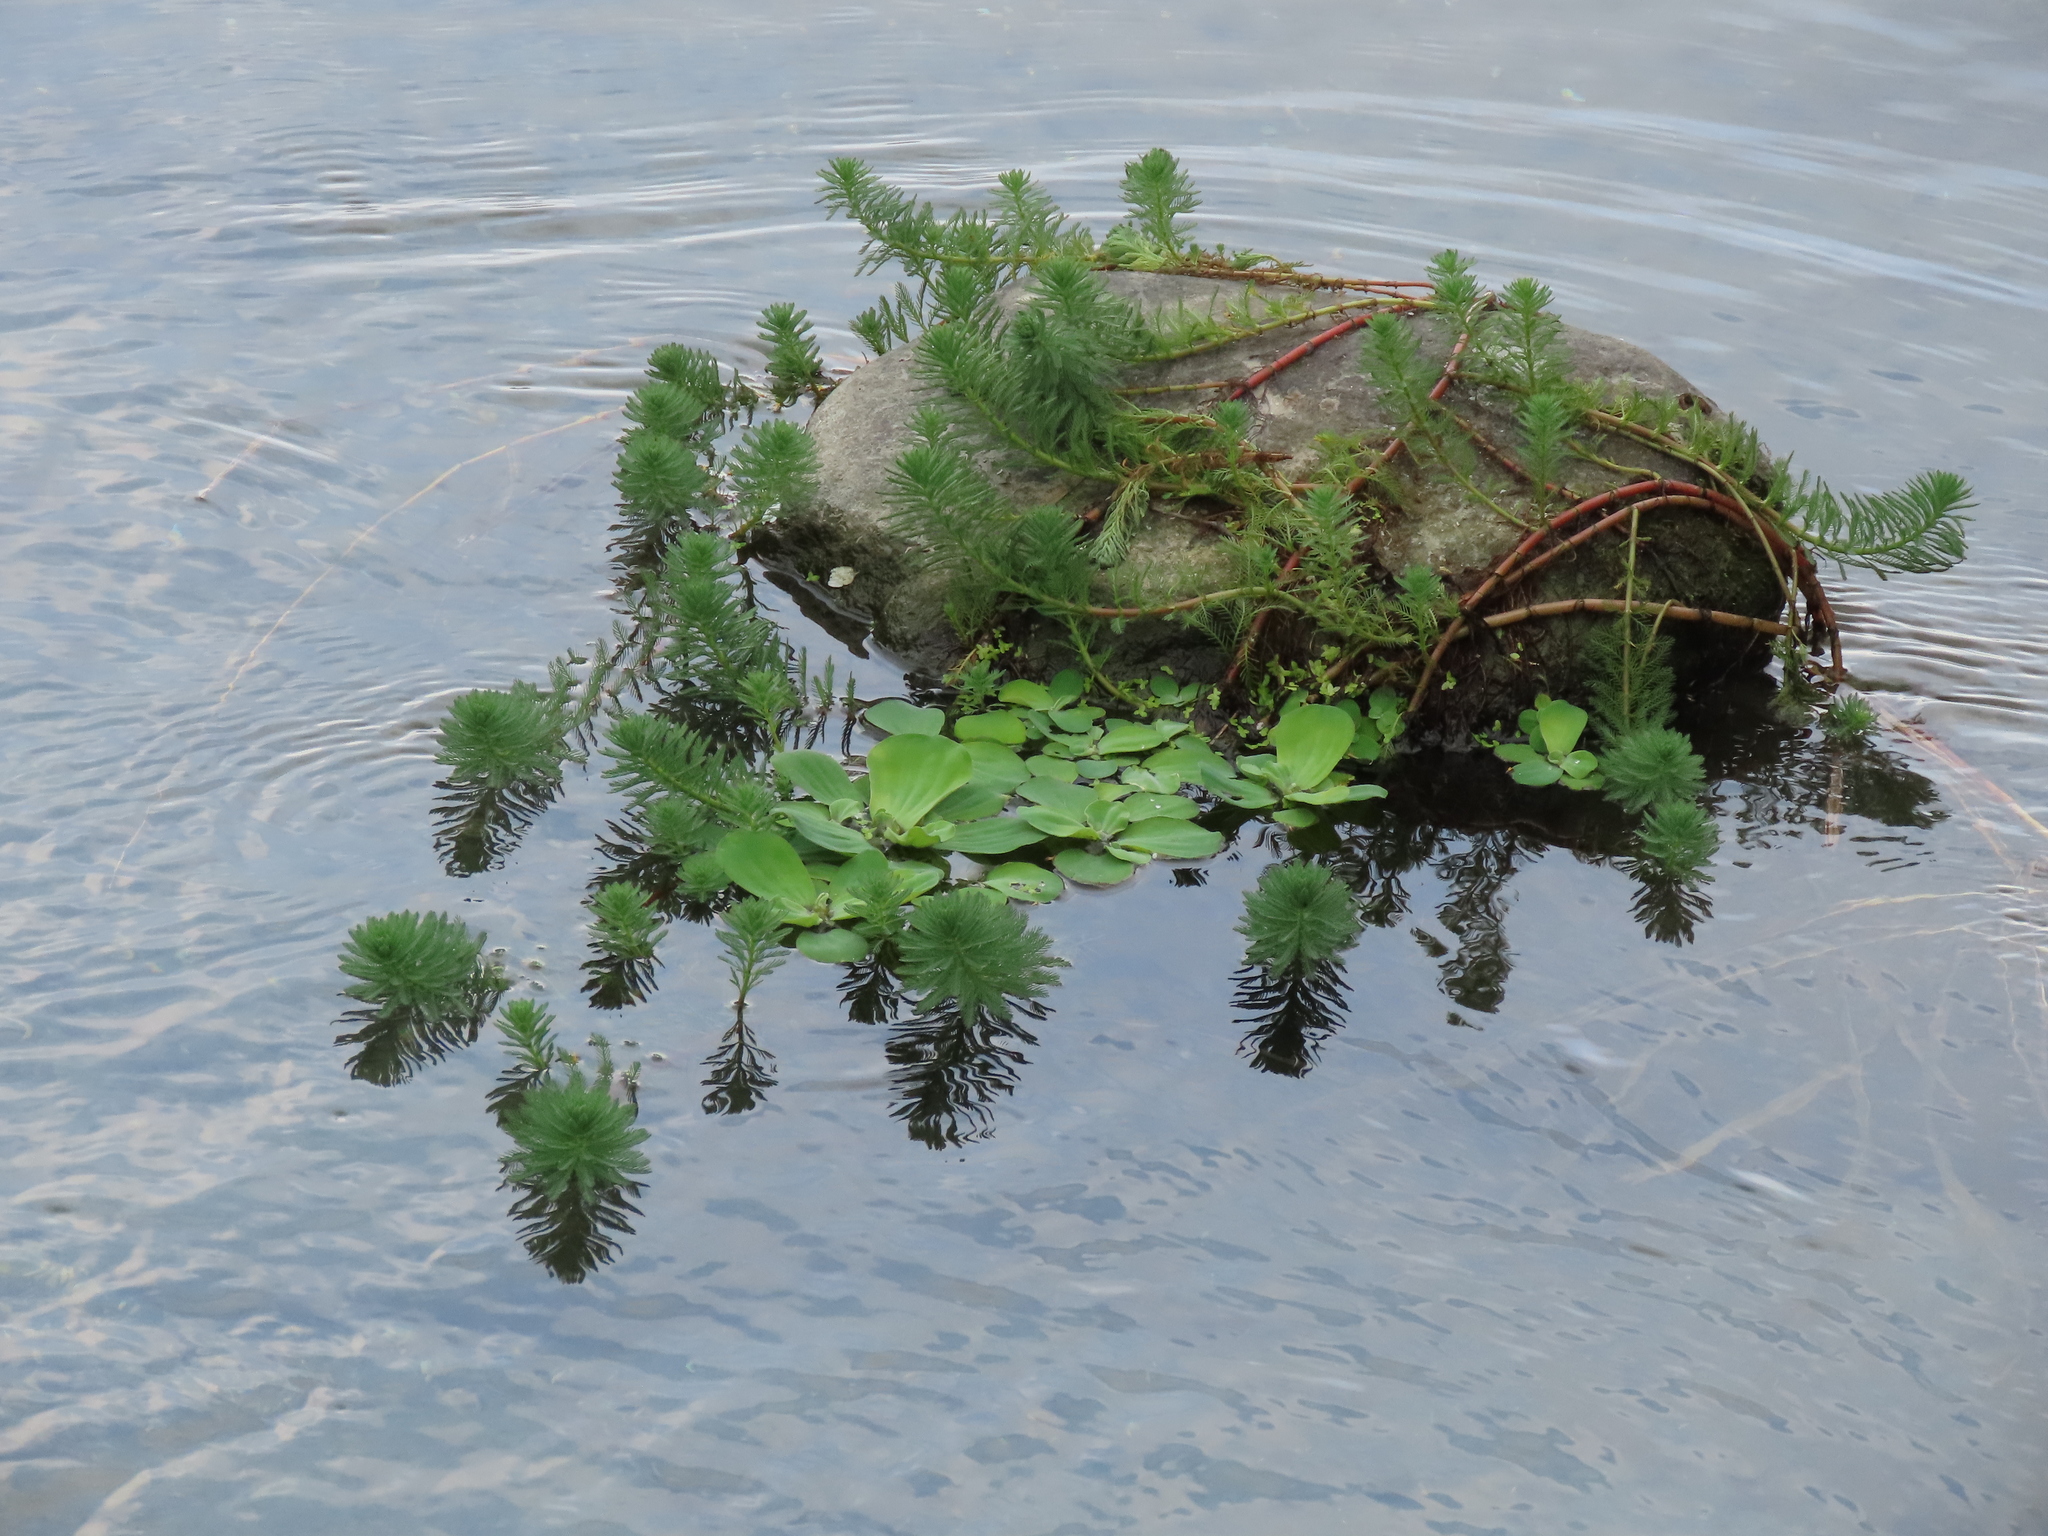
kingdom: Plantae
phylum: Tracheophyta
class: Magnoliopsida
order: Saxifragales
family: Haloragaceae
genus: Myriophyllum
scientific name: Myriophyllum aquaticum
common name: Parrot's feather
